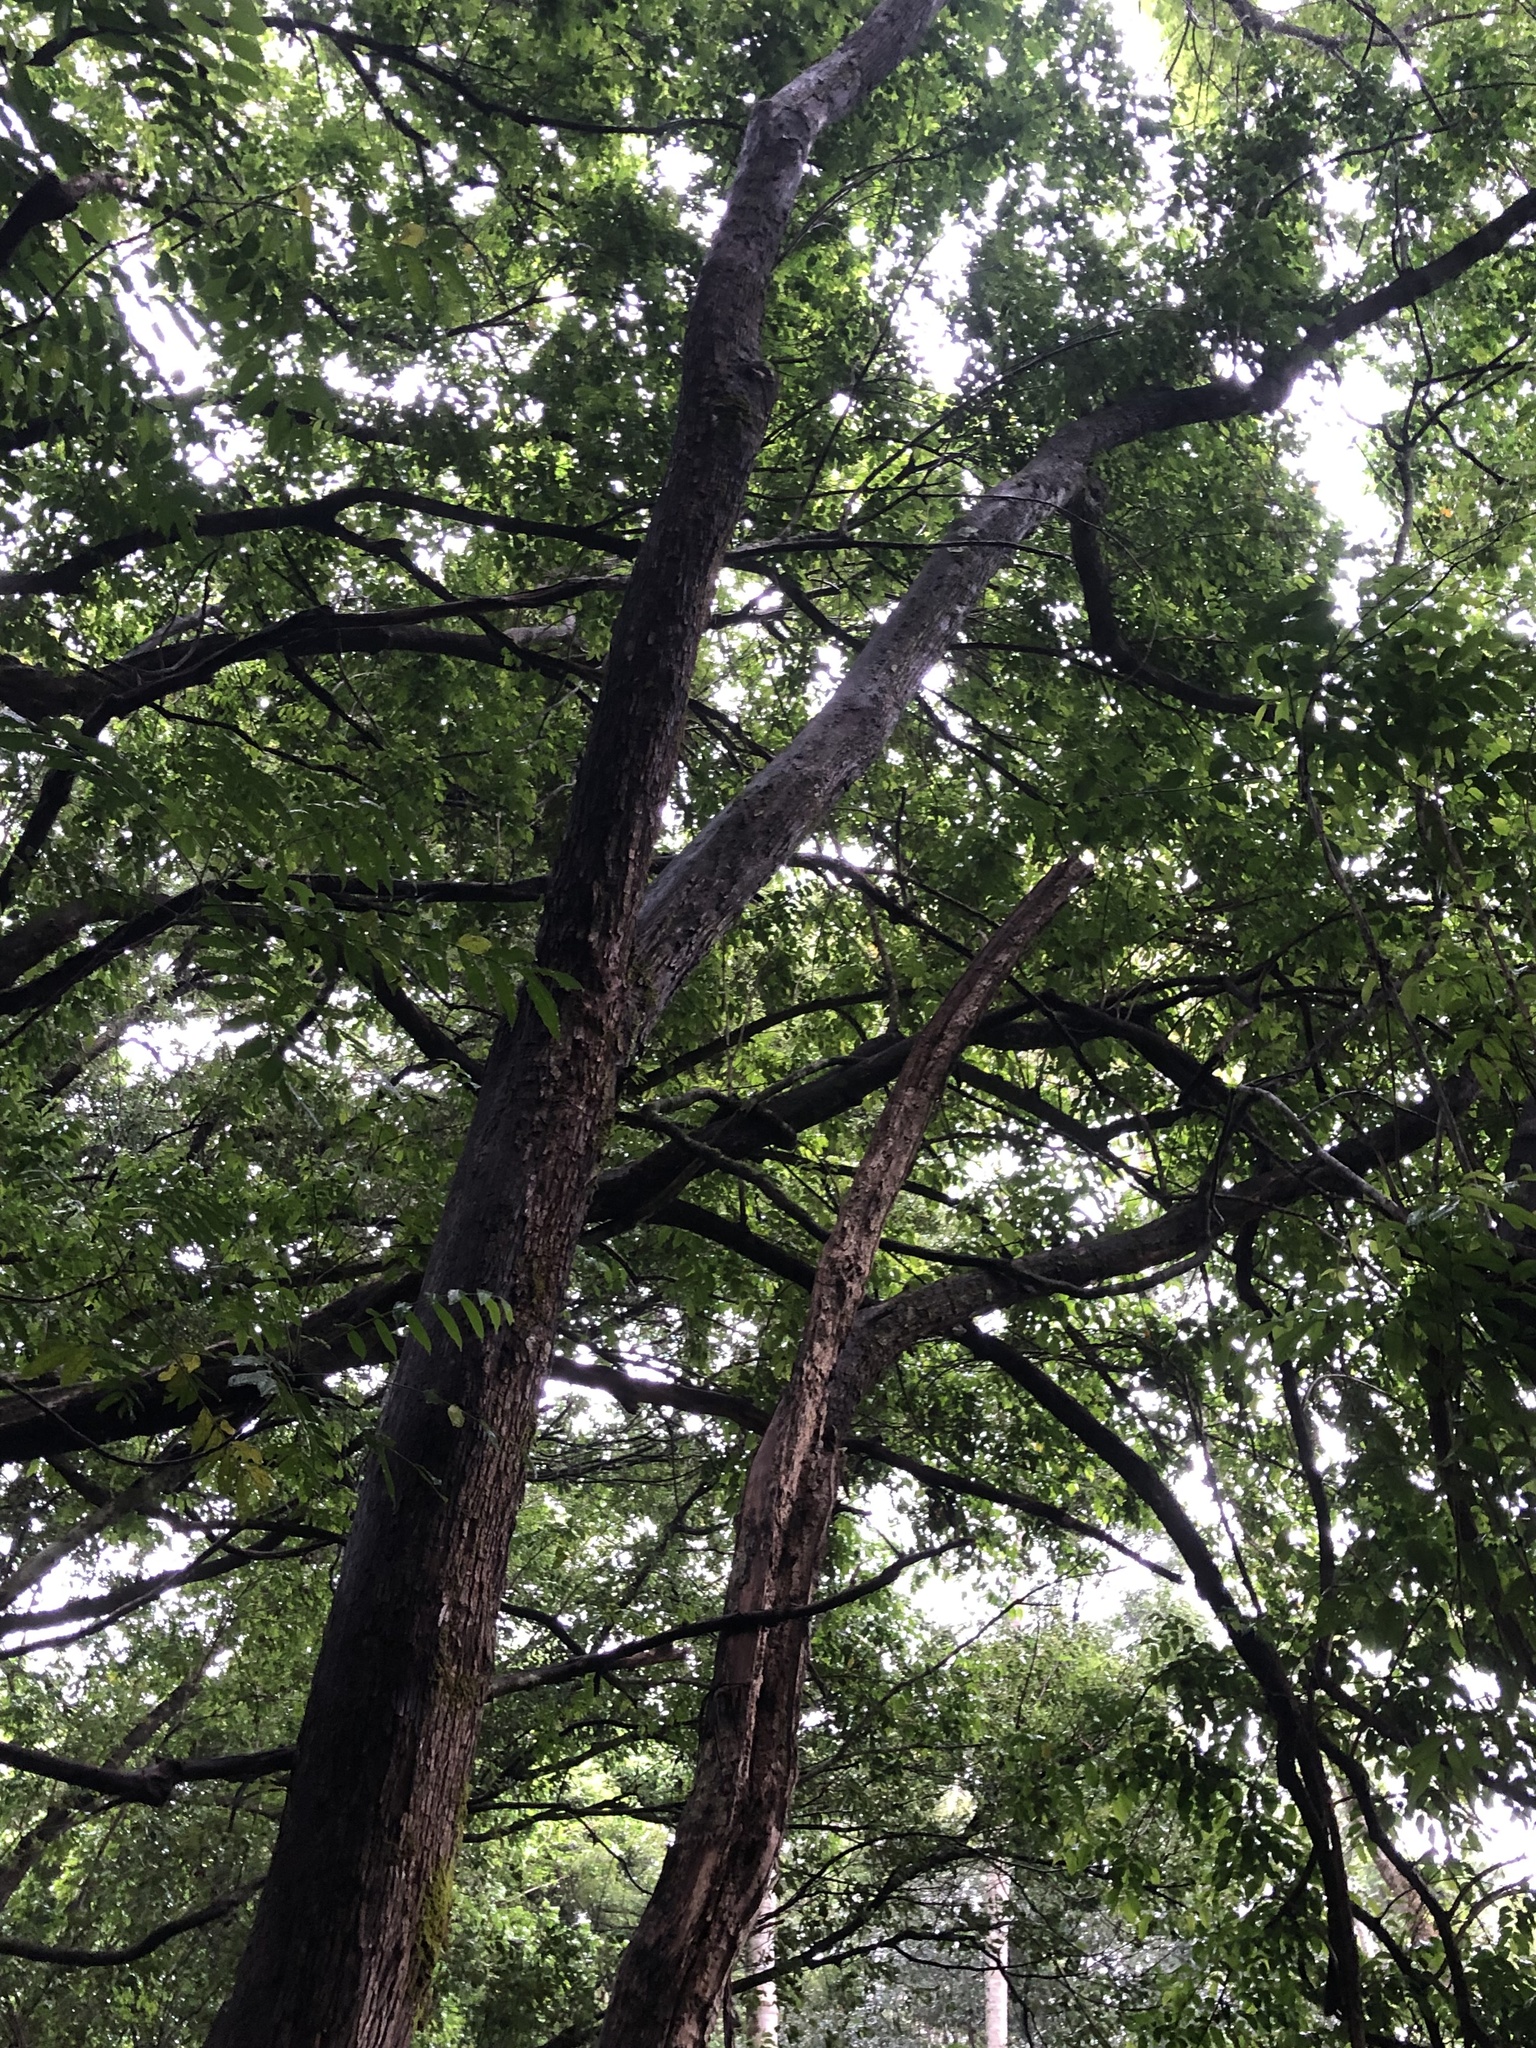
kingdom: Plantae
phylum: Tracheophyta
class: Magnoliopsida
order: Malpighiales
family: Phyllanthaceae
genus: Glochidion
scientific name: Glochidion ferdinandi
